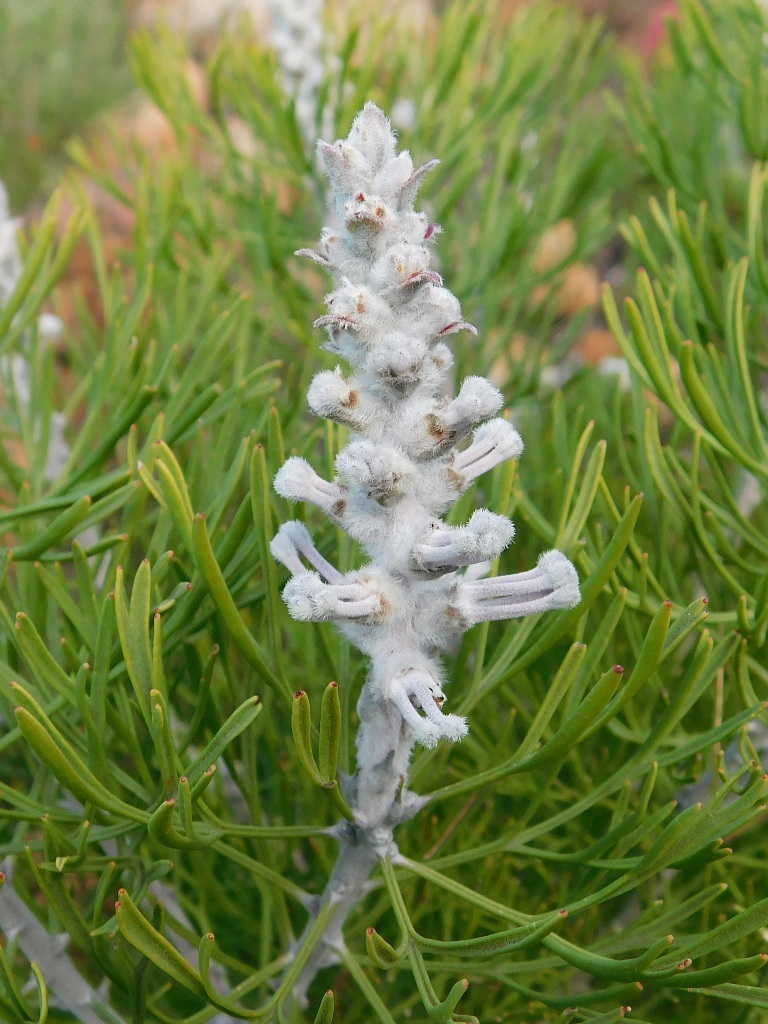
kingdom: Plantae
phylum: Tracheophyta
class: Magnoliopsida
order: Proteales
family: Proteaceae
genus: Paranomus
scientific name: Paranomus dispersus
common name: Long-head sceptre
